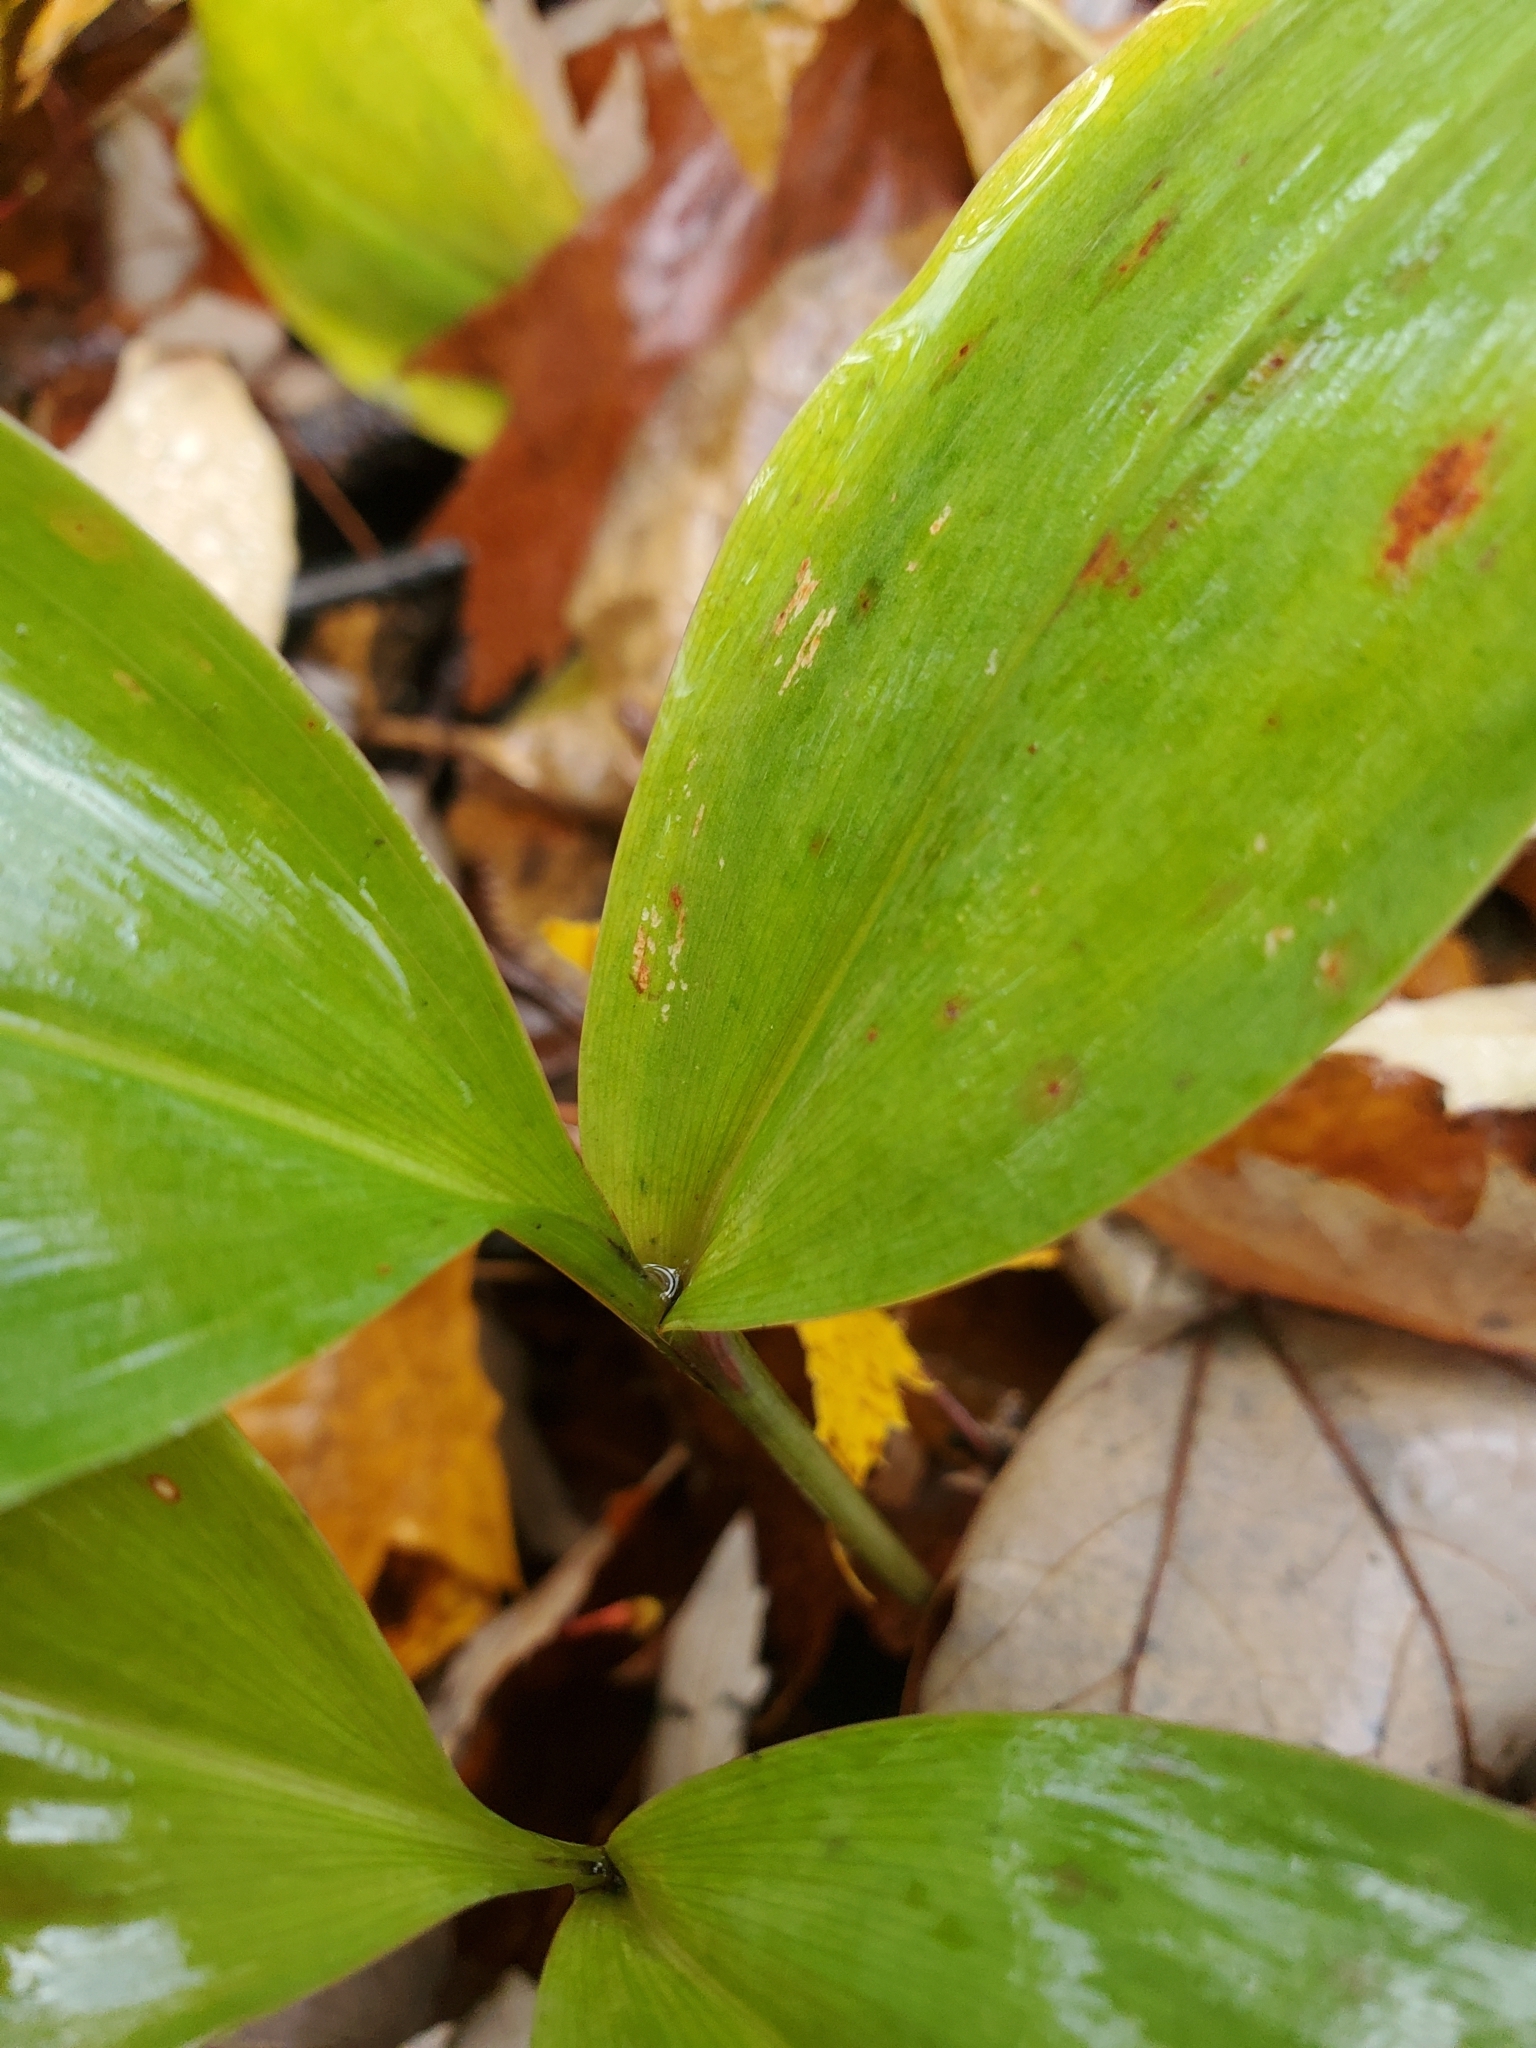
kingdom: Plantae
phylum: Tracheophyta
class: Liliopsida
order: Asparagales
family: Asparagaceae
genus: Convallaria
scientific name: Convallaria majalis
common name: Lily-of-the-valley
